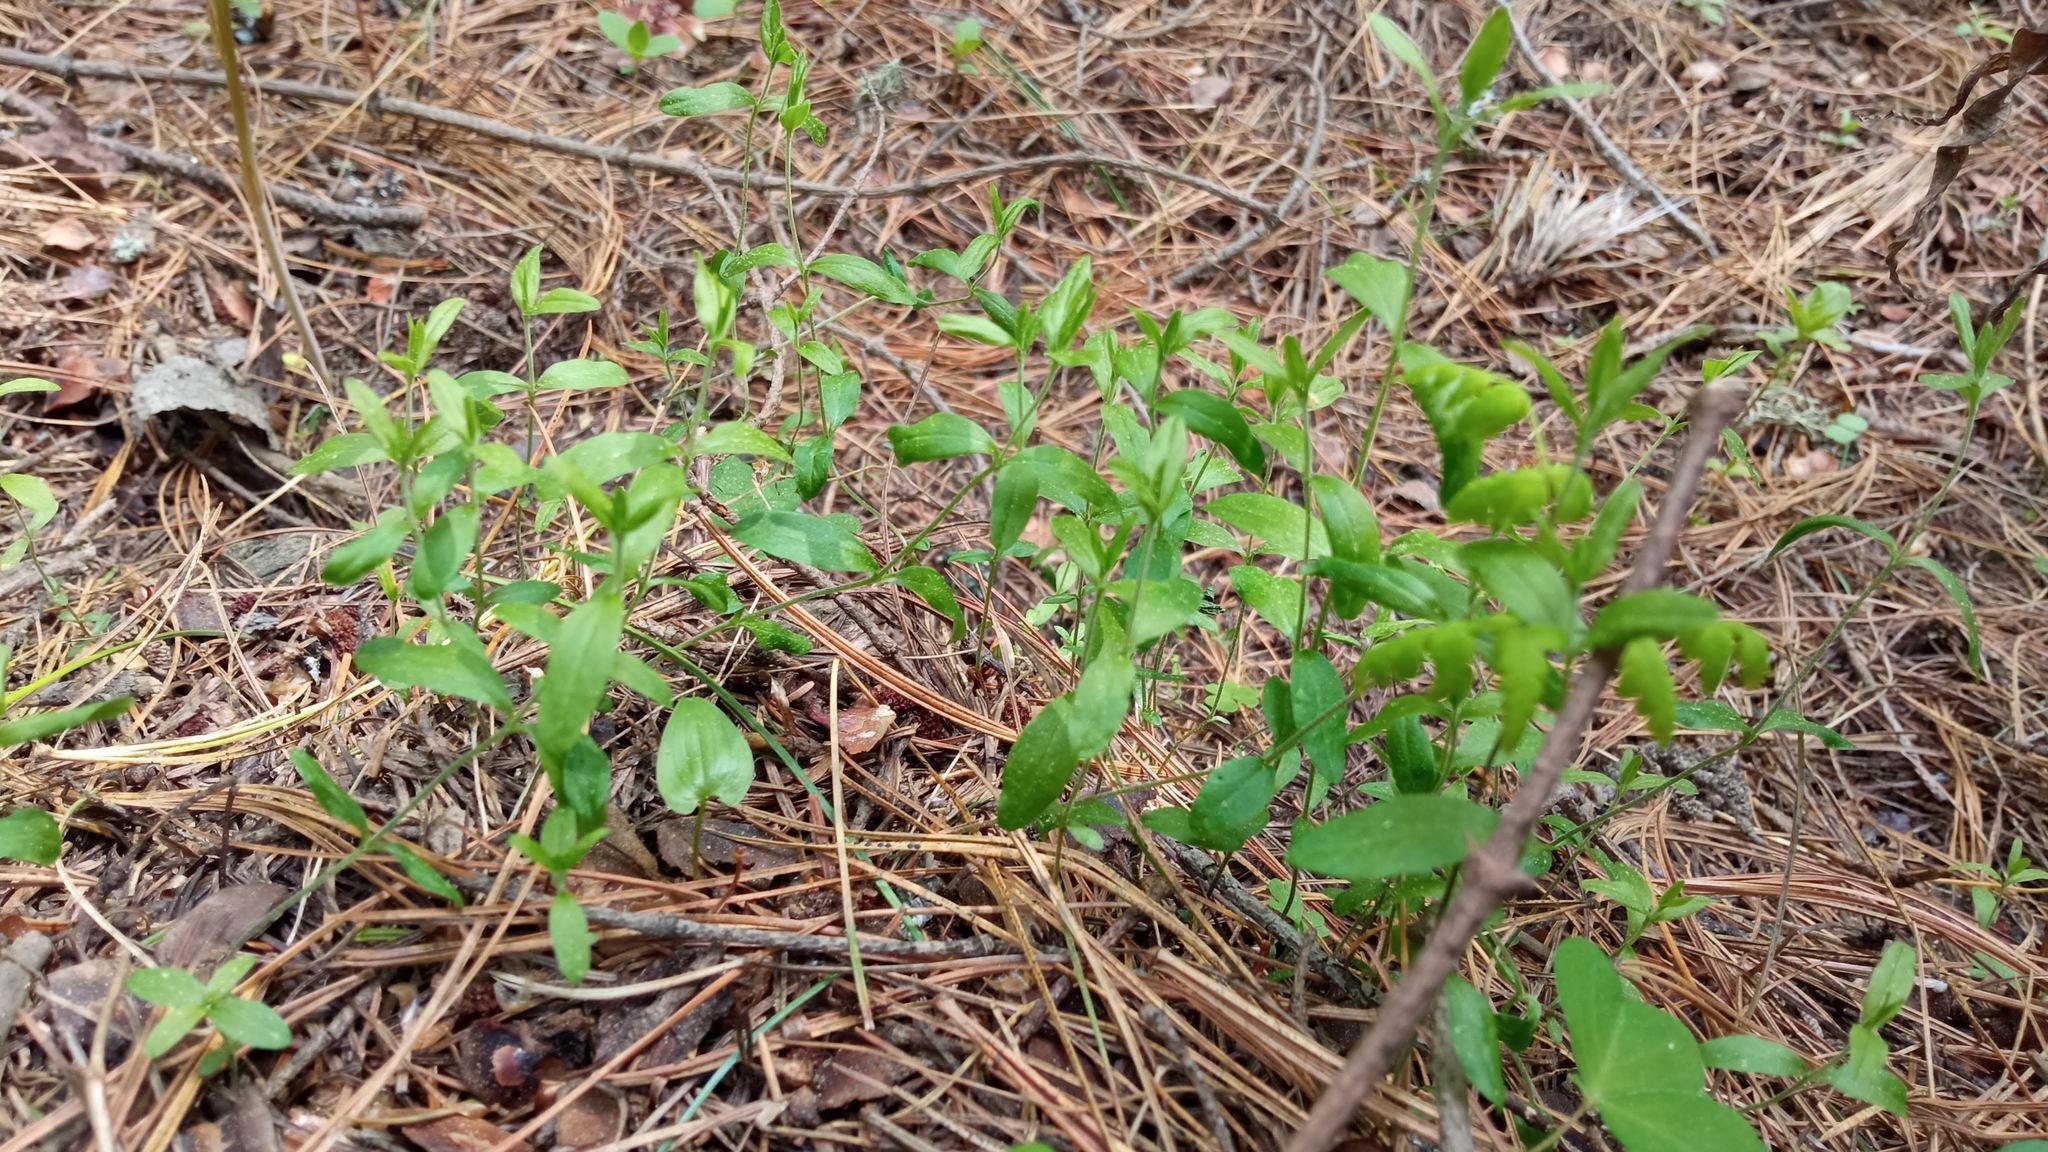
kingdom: Plantae
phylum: Tracheophyta
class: Magnoliopsida
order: Caryophyllales
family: Caryophyllaceae
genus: Moehringia
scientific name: Moehringia lateriflora
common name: Blunt-leaved sandwort
